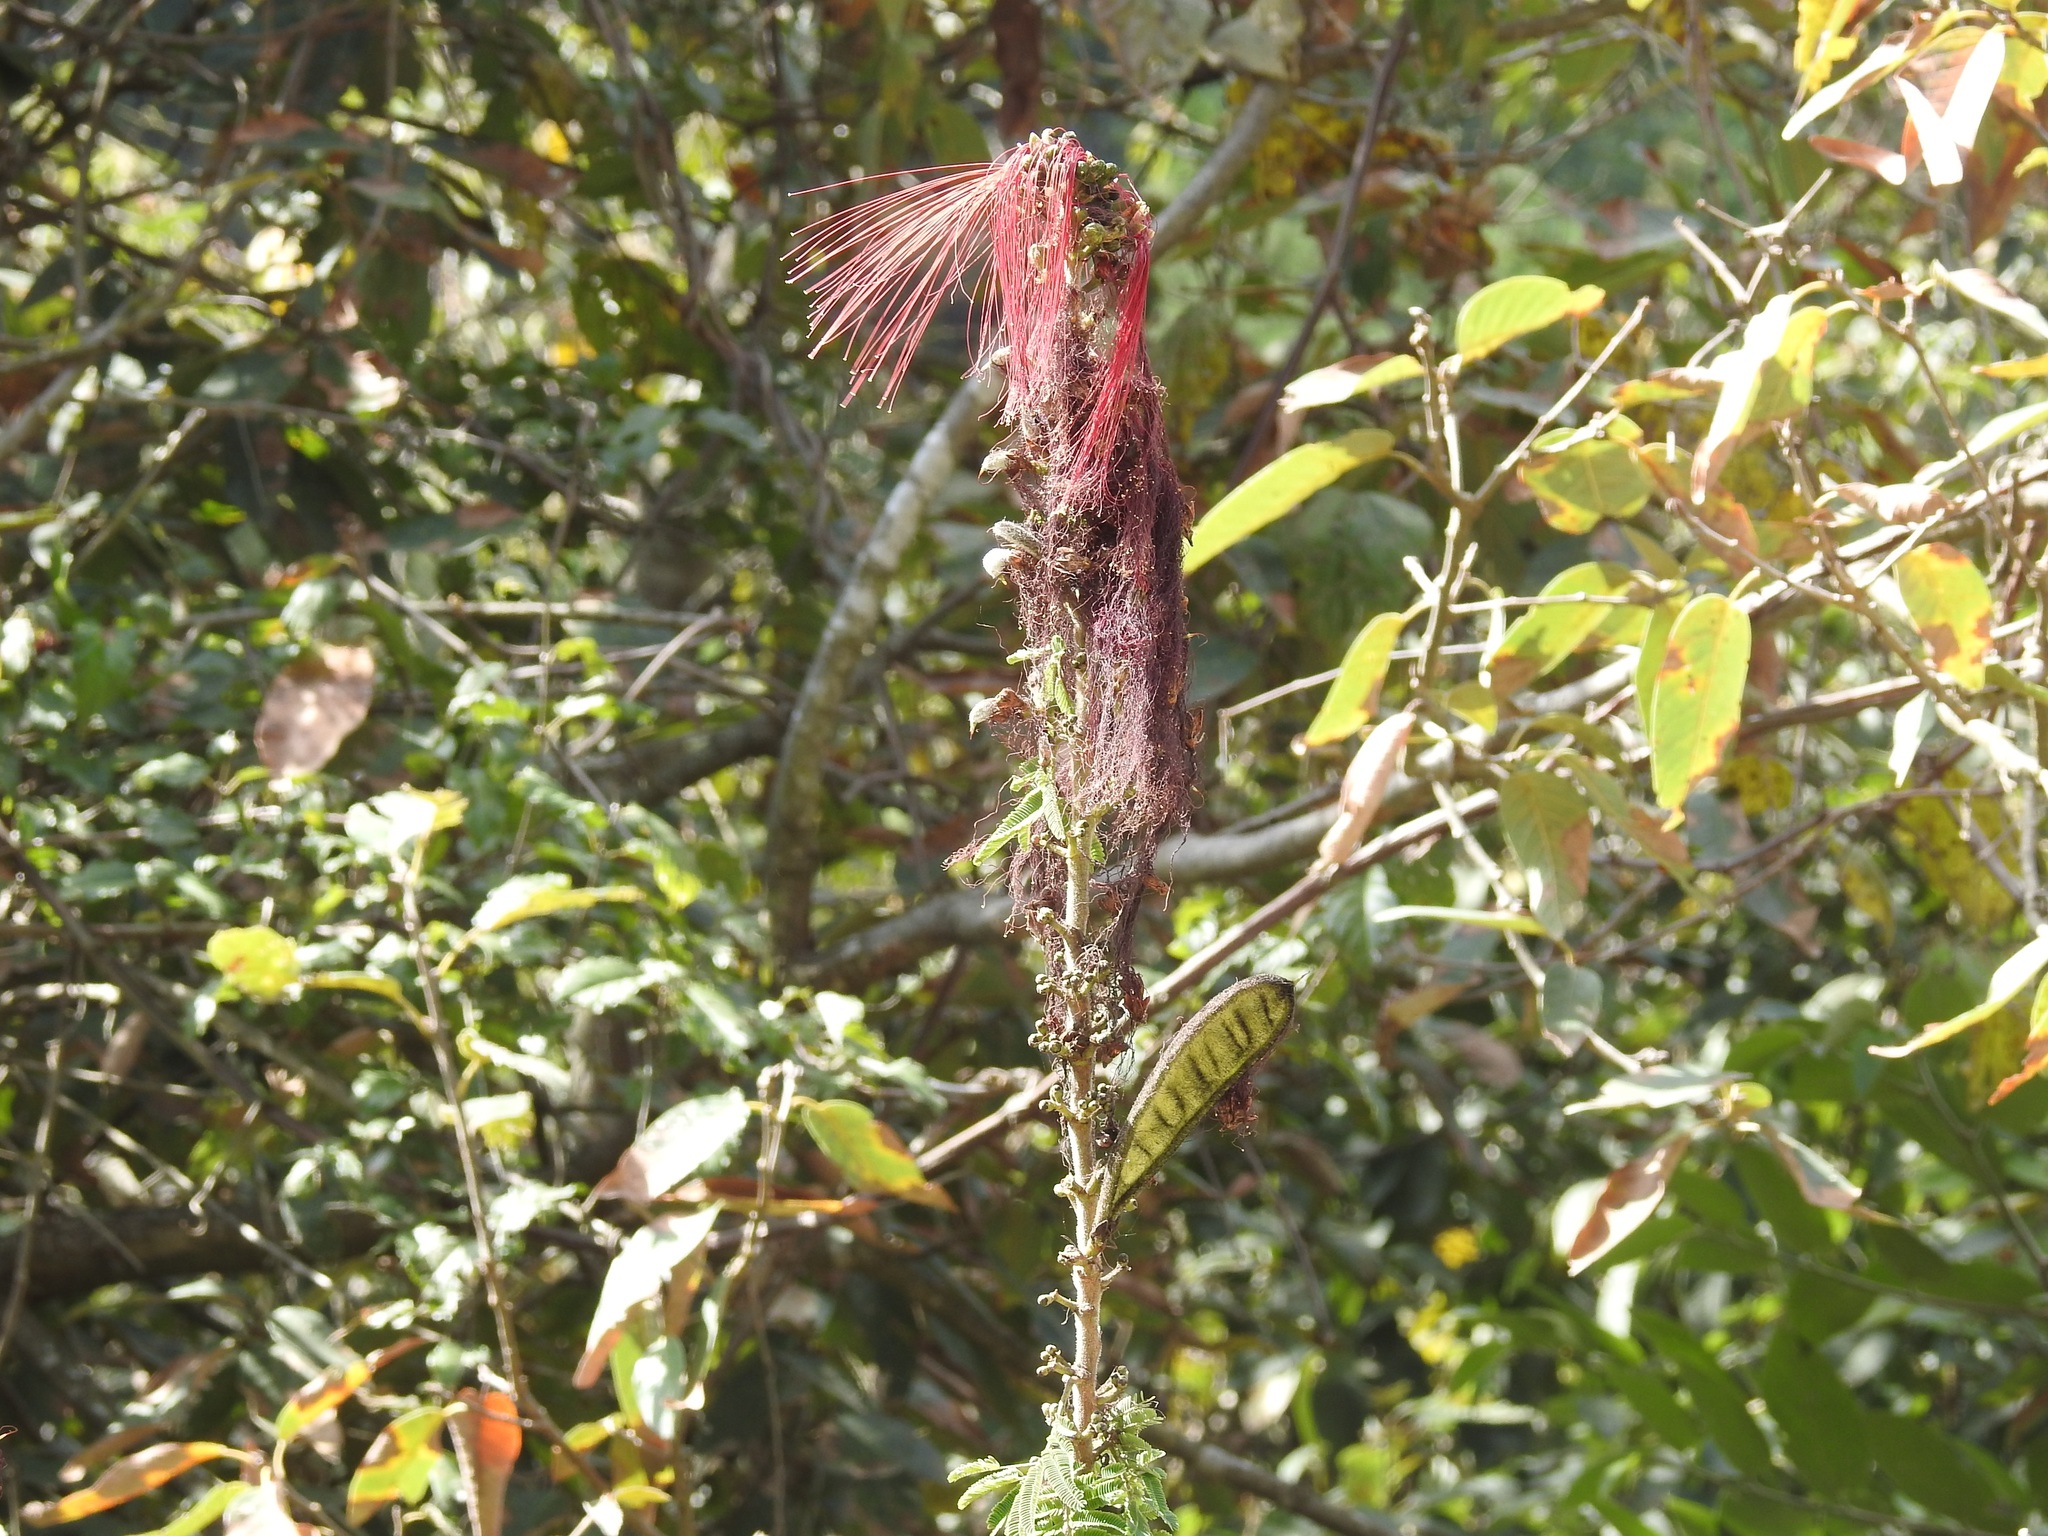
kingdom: Plantae
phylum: Tracheophyta
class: Magnoliopsida
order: Fabales
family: Fabaceae
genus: Calliandra
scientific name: Calliandra houstoniana
